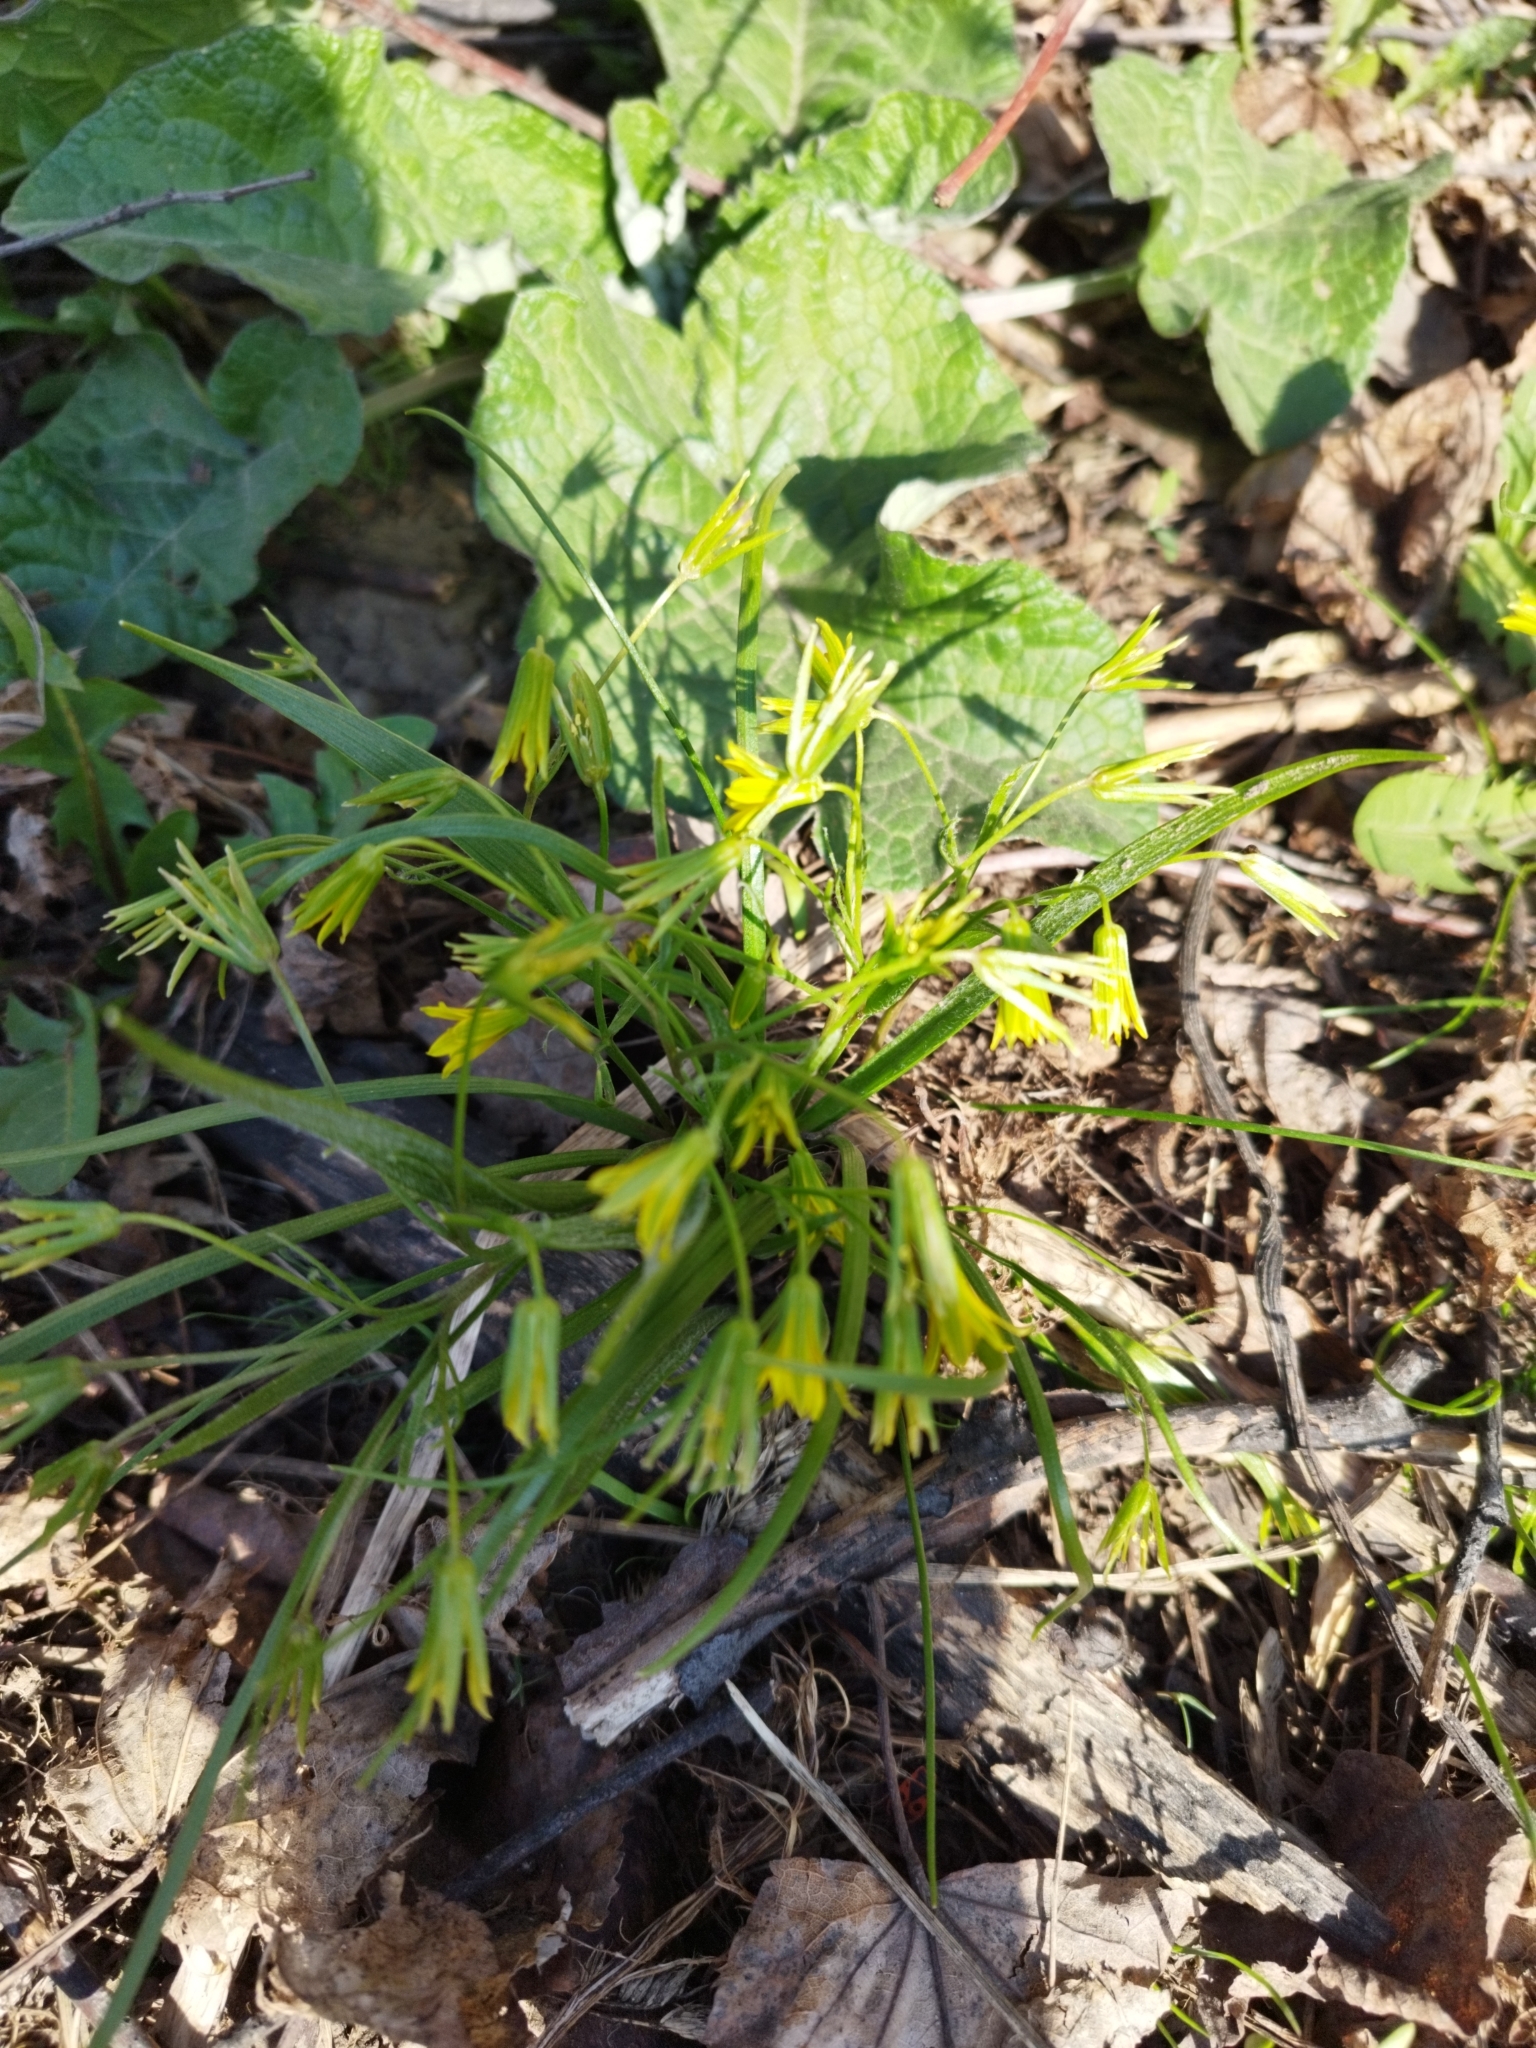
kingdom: Plantae
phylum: Tracheophyta
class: Liliopsida
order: Liliales
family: Liliaceae
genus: Gagea
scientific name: Gagea minima
